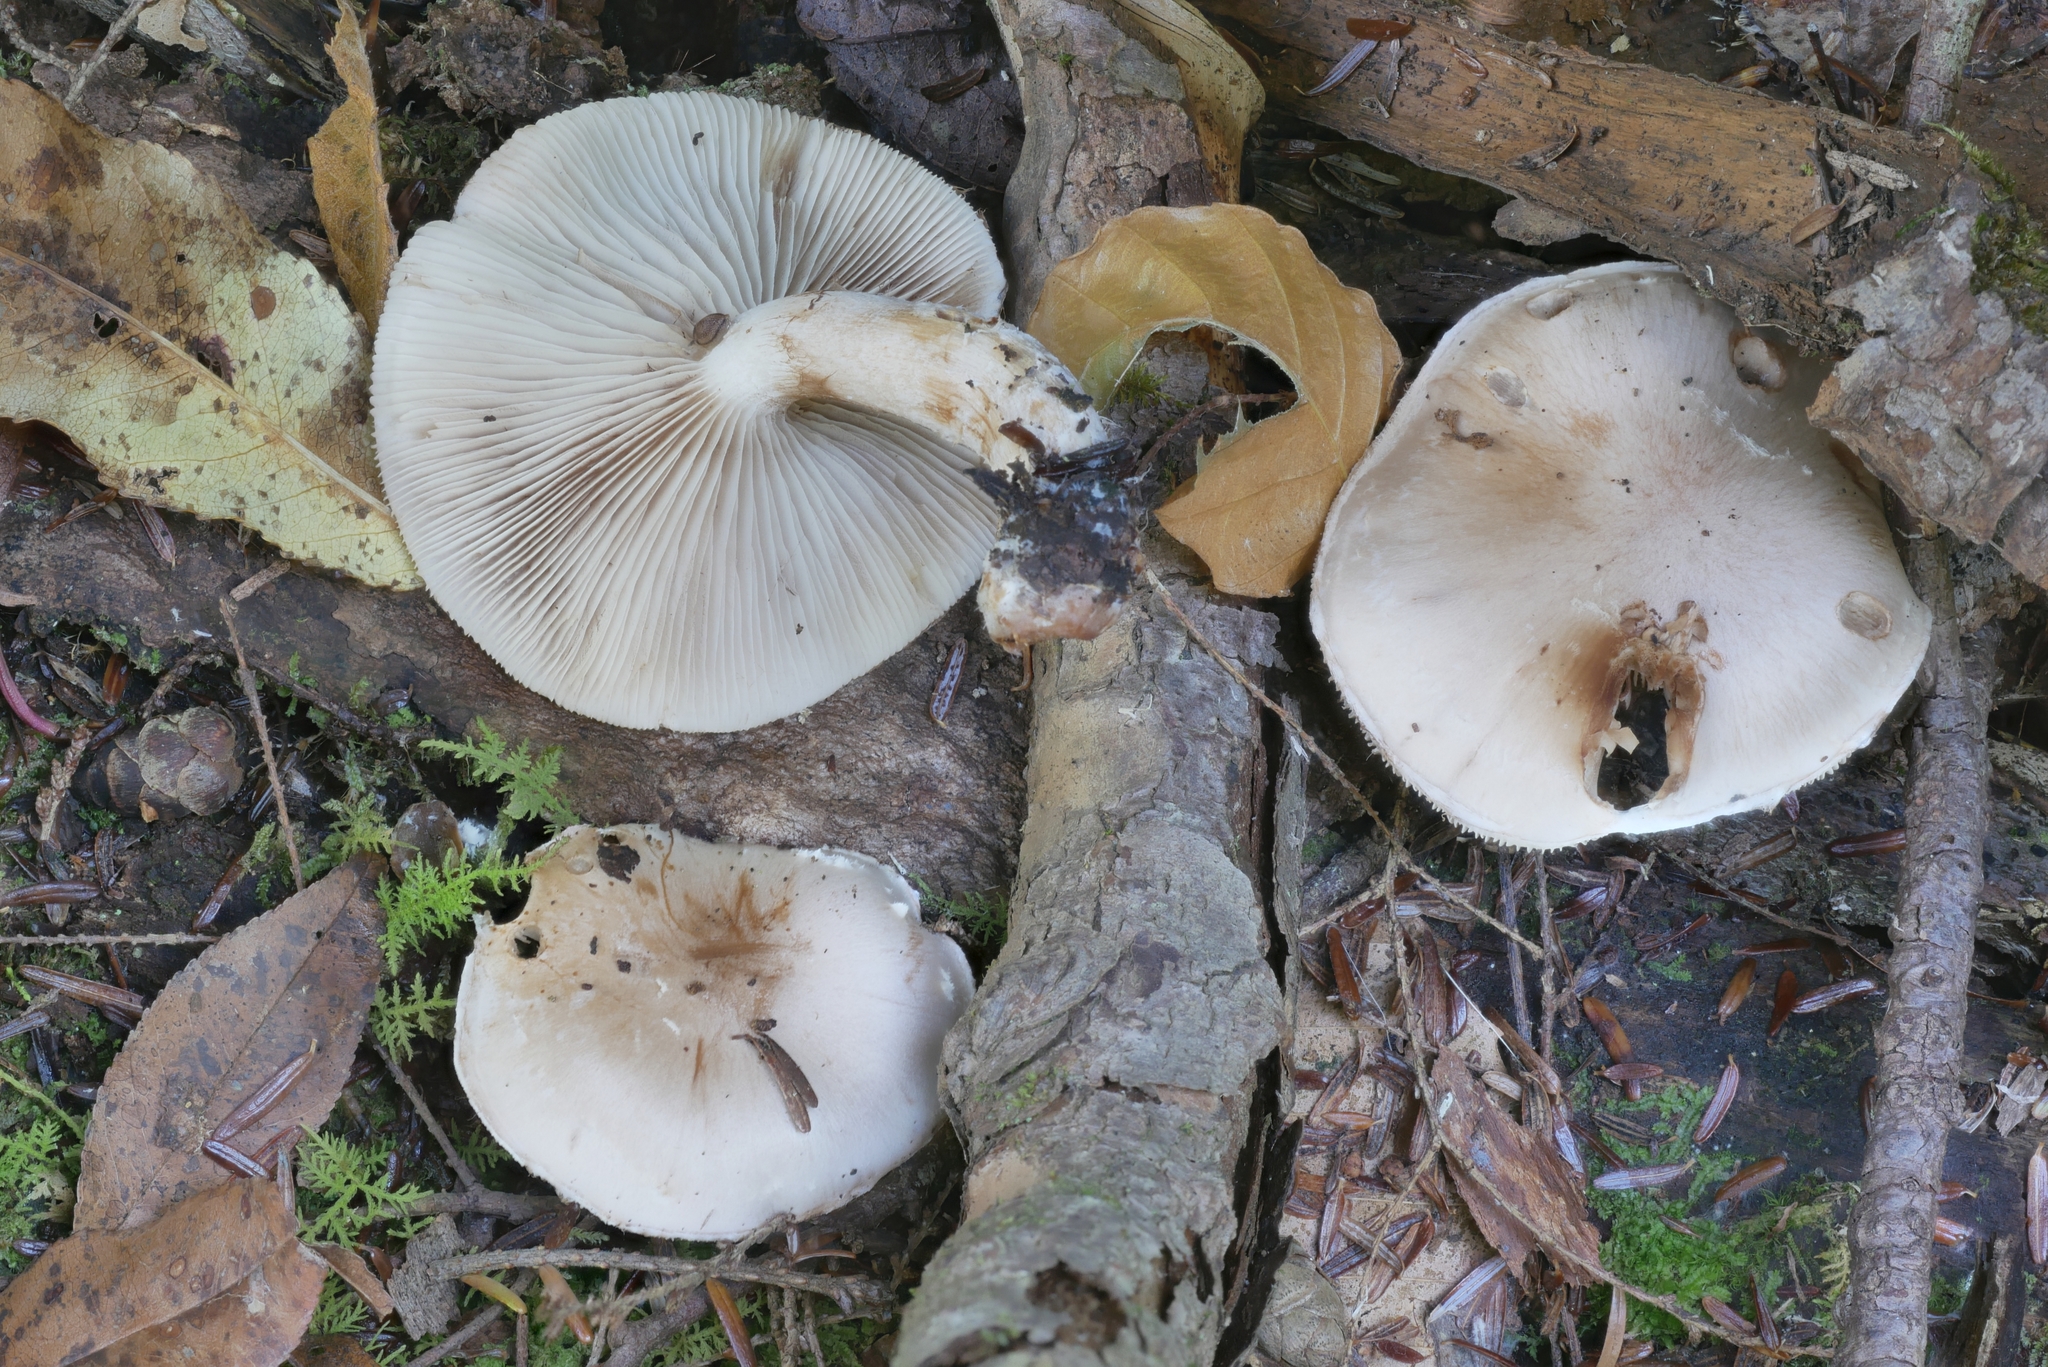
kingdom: Fungi
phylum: Basidiomycota
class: Agaricomycetes
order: Agaricales
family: Strophariaceae
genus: Pholiota
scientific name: Pholiota lenta
